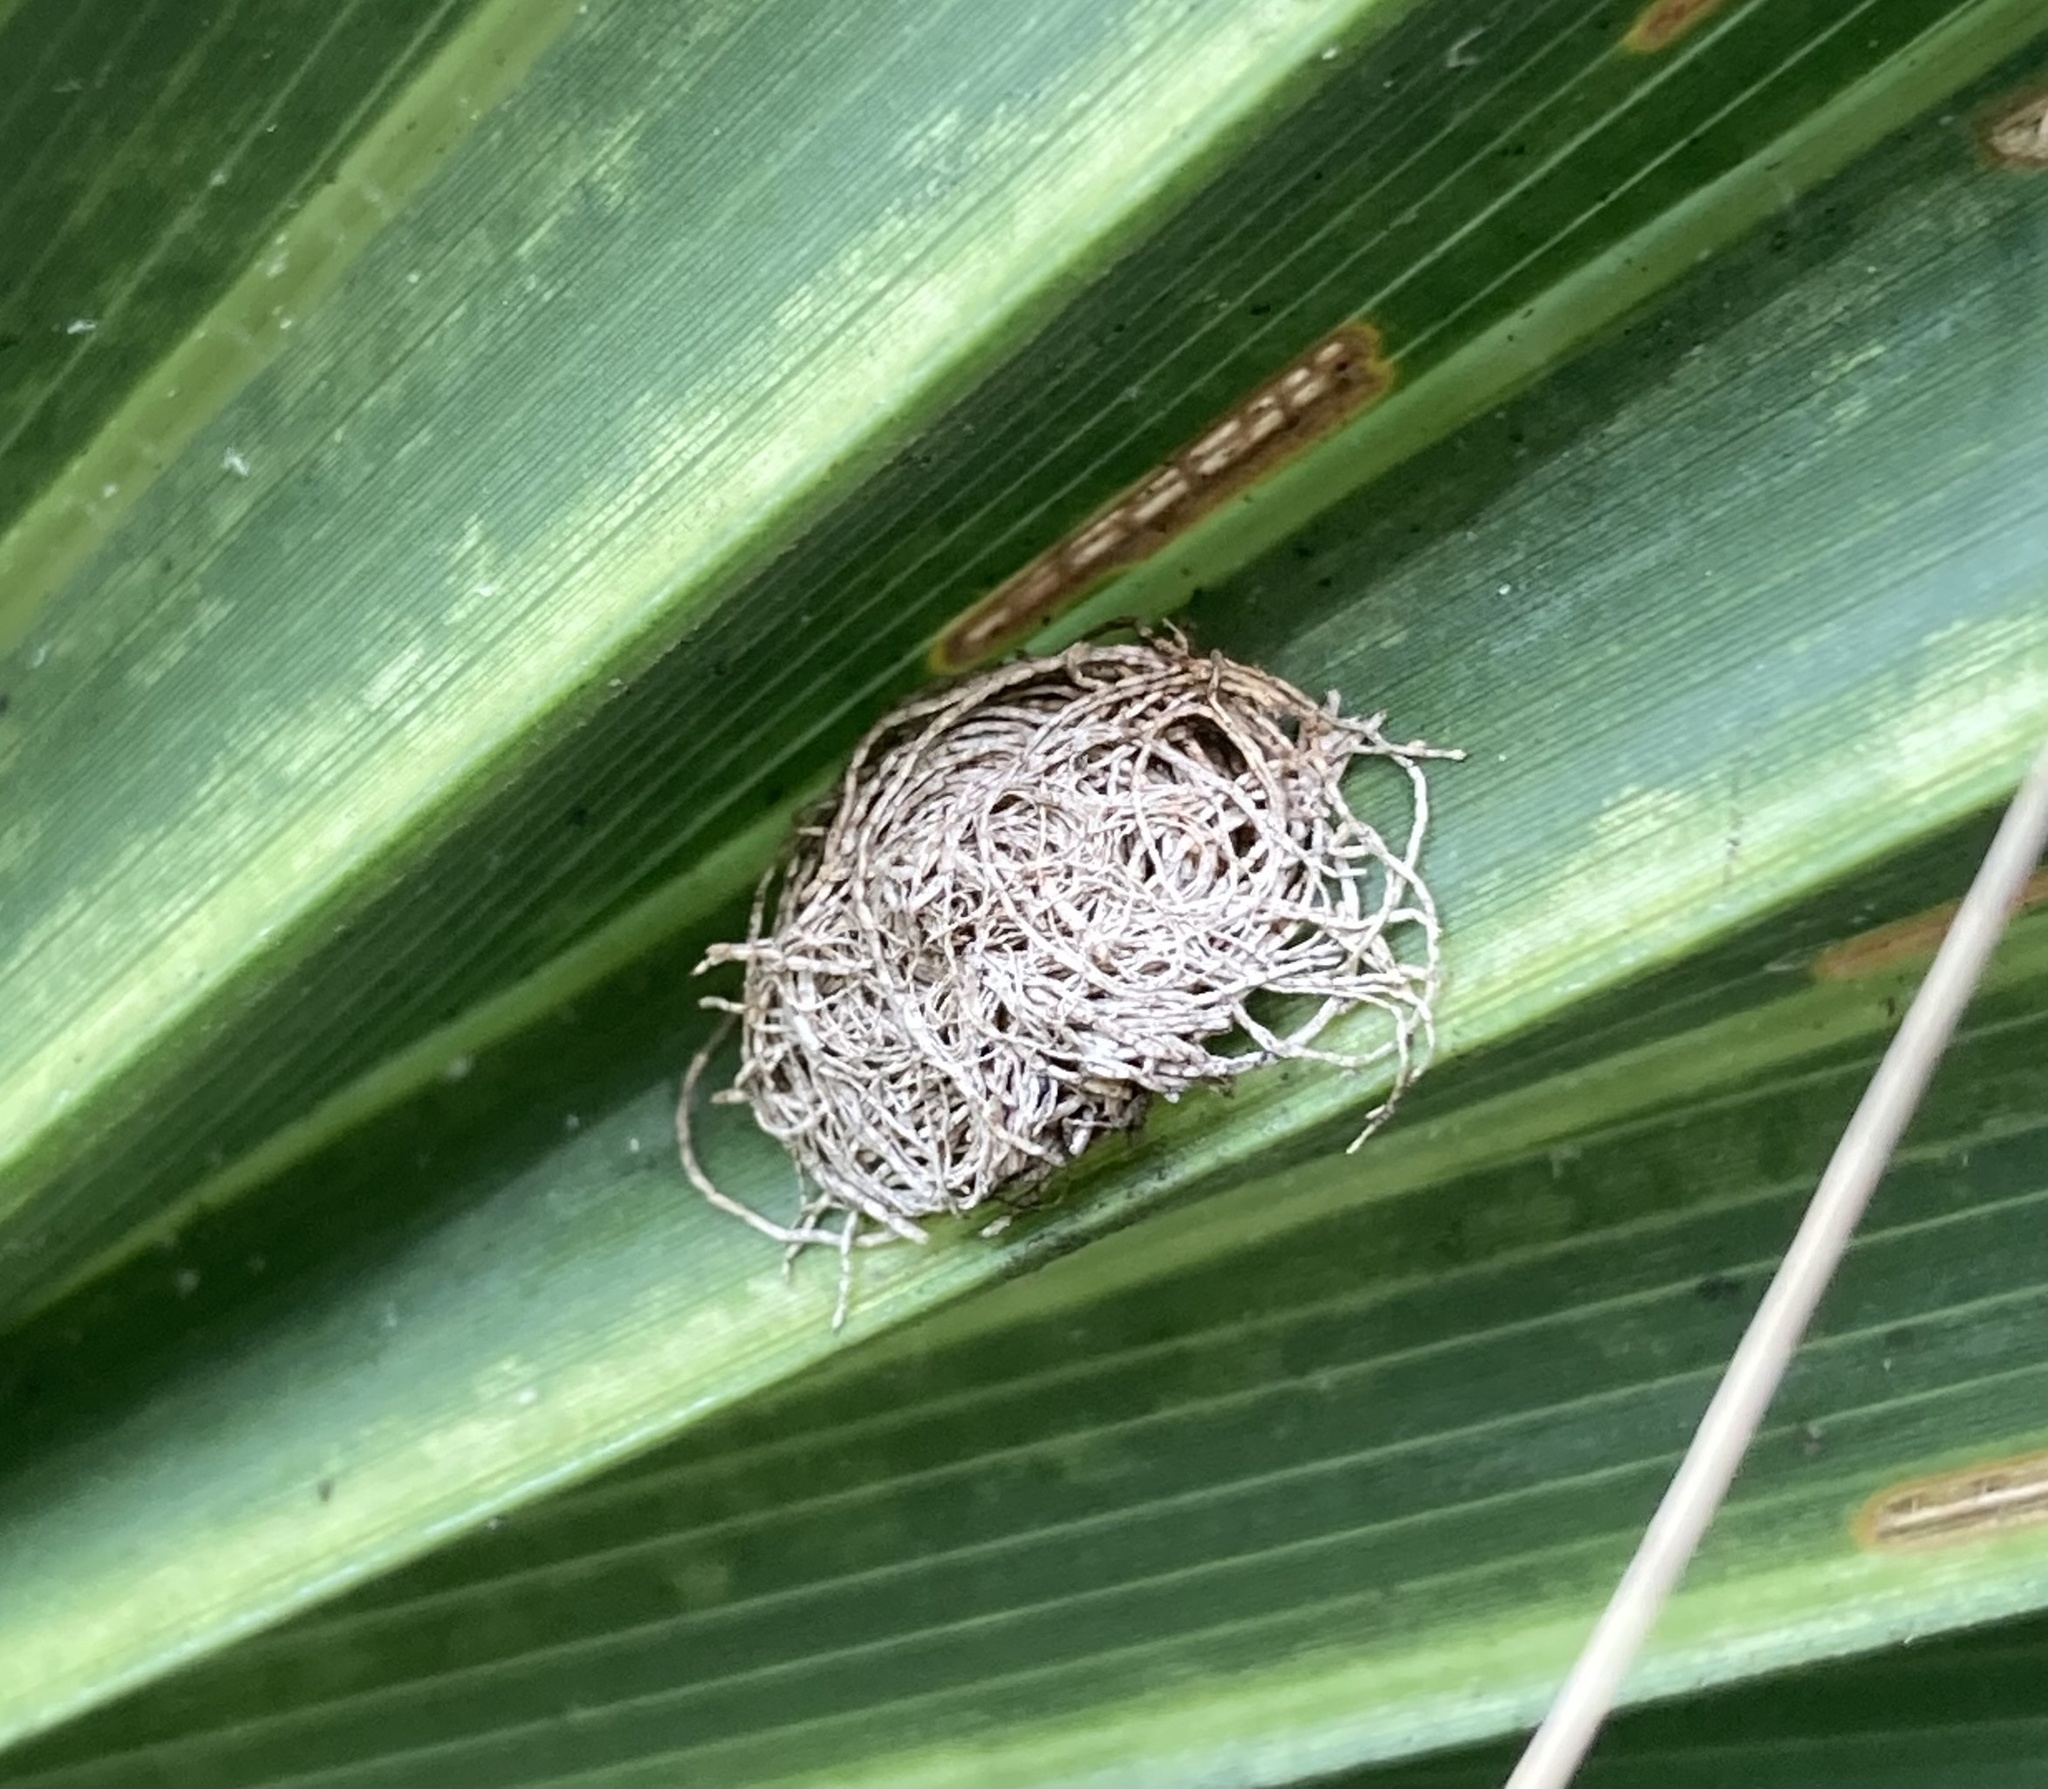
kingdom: Animalia
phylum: Arthropoda
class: Insecta
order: Coleoptera
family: Chrysomelidae
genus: Hemisphaerota
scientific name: Hemisphaerota cyanea
